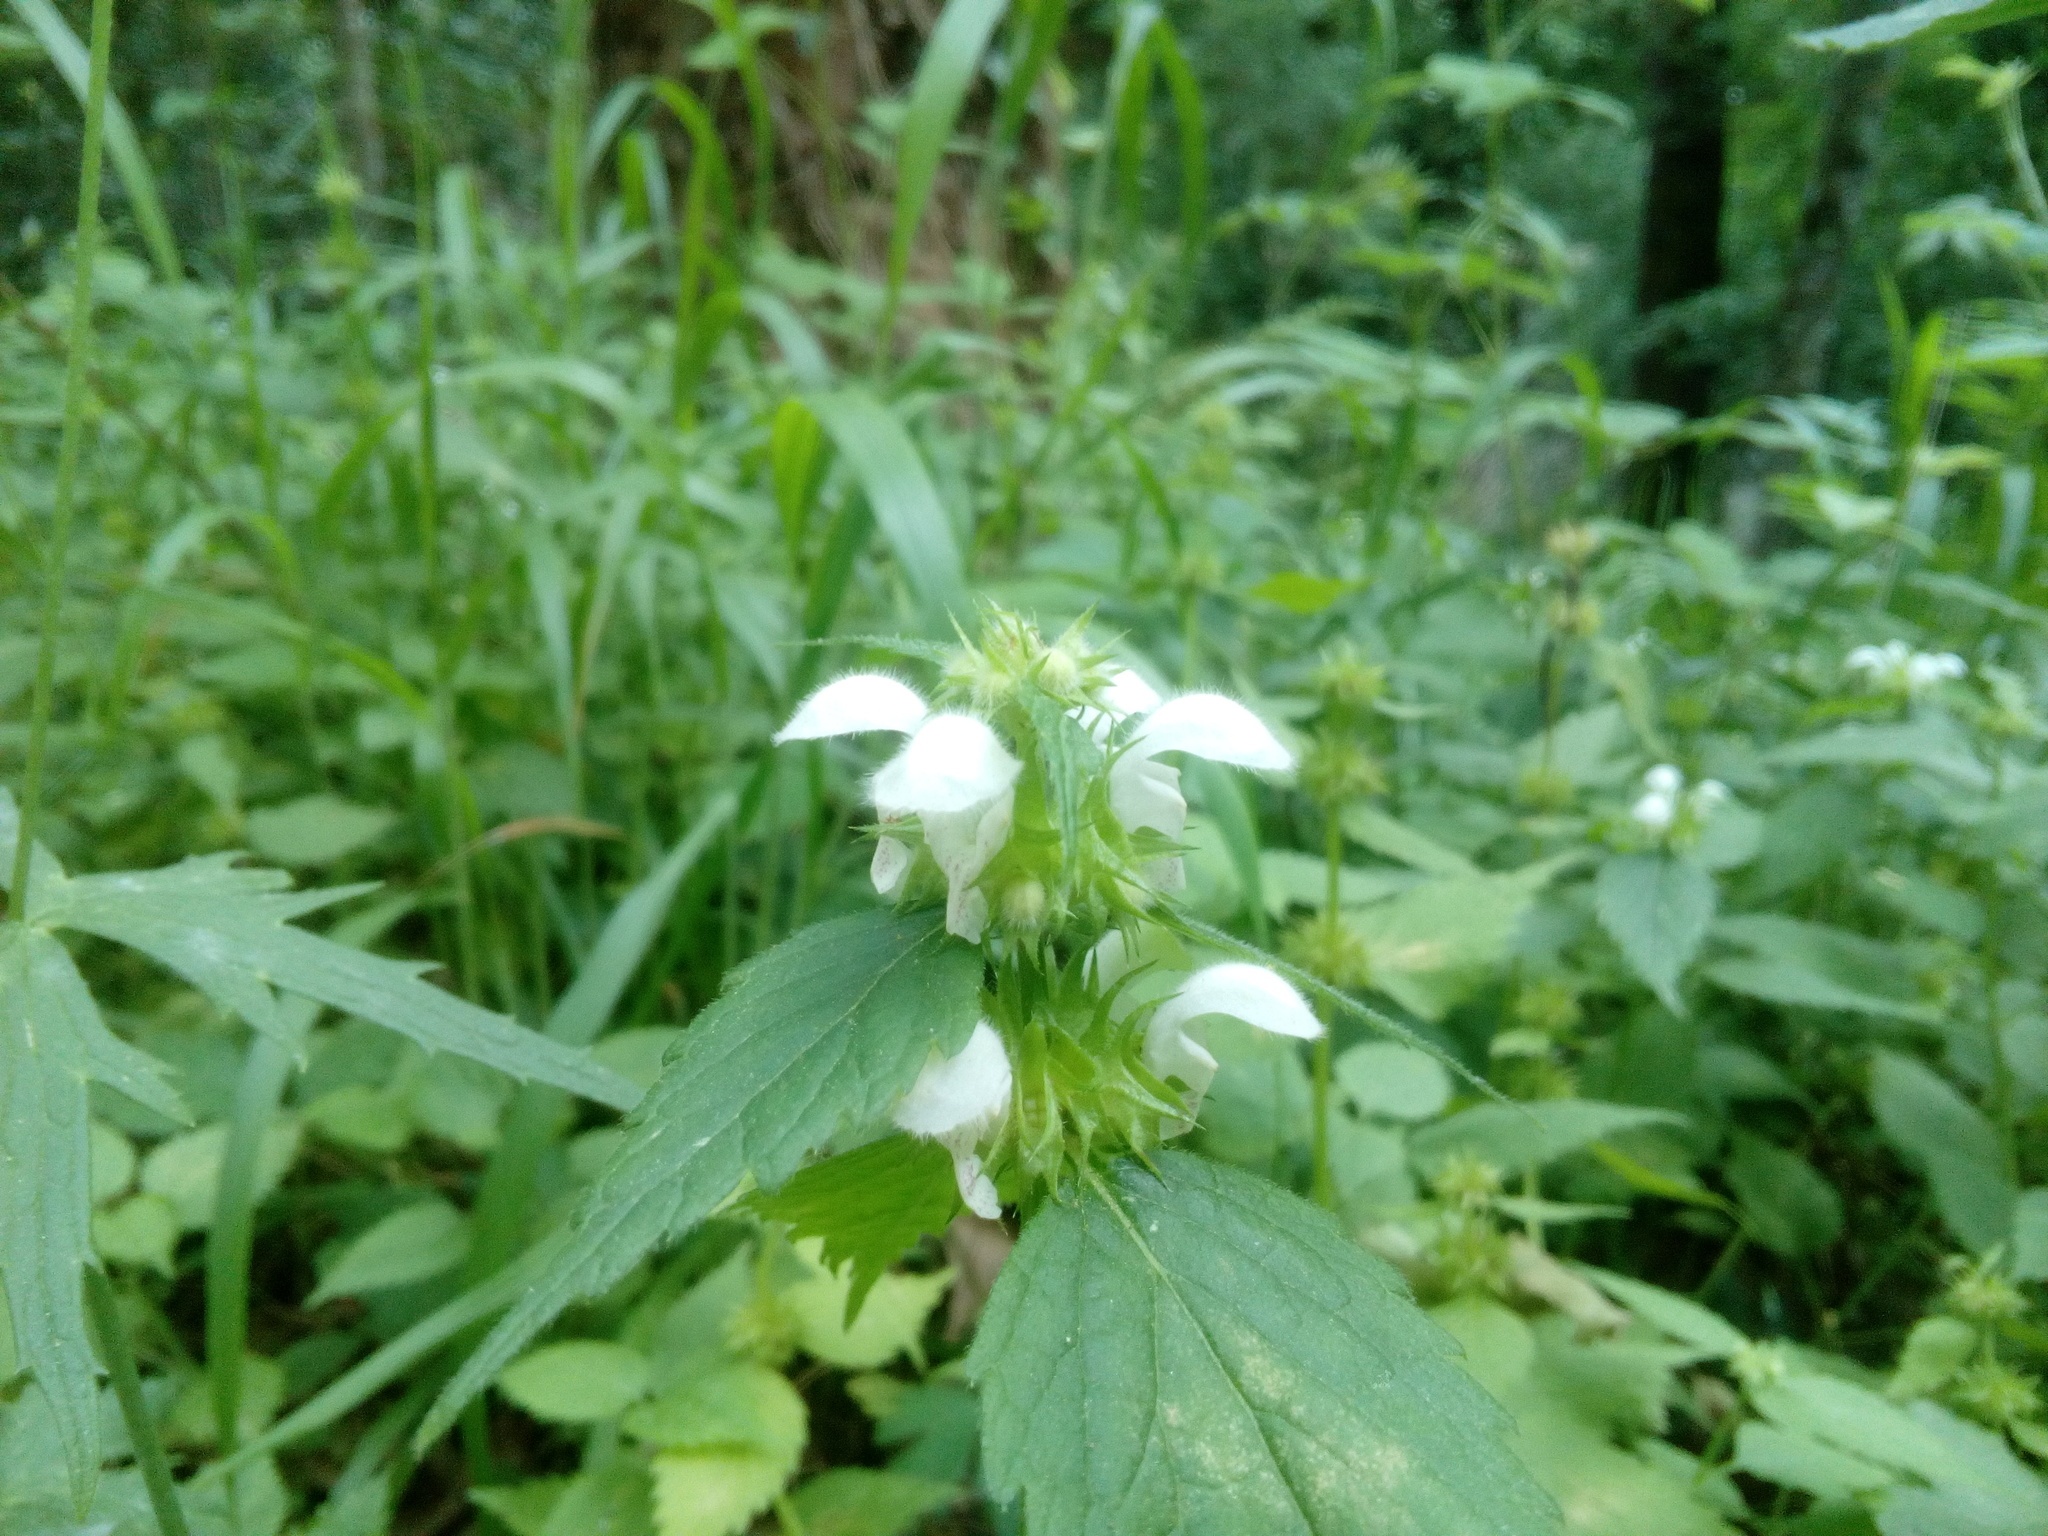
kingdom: Plantae
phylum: Tracheophyta
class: Magnoliopsida
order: Lamiales
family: Lamiaceae
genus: Lamium
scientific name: Lamium flexuosum
